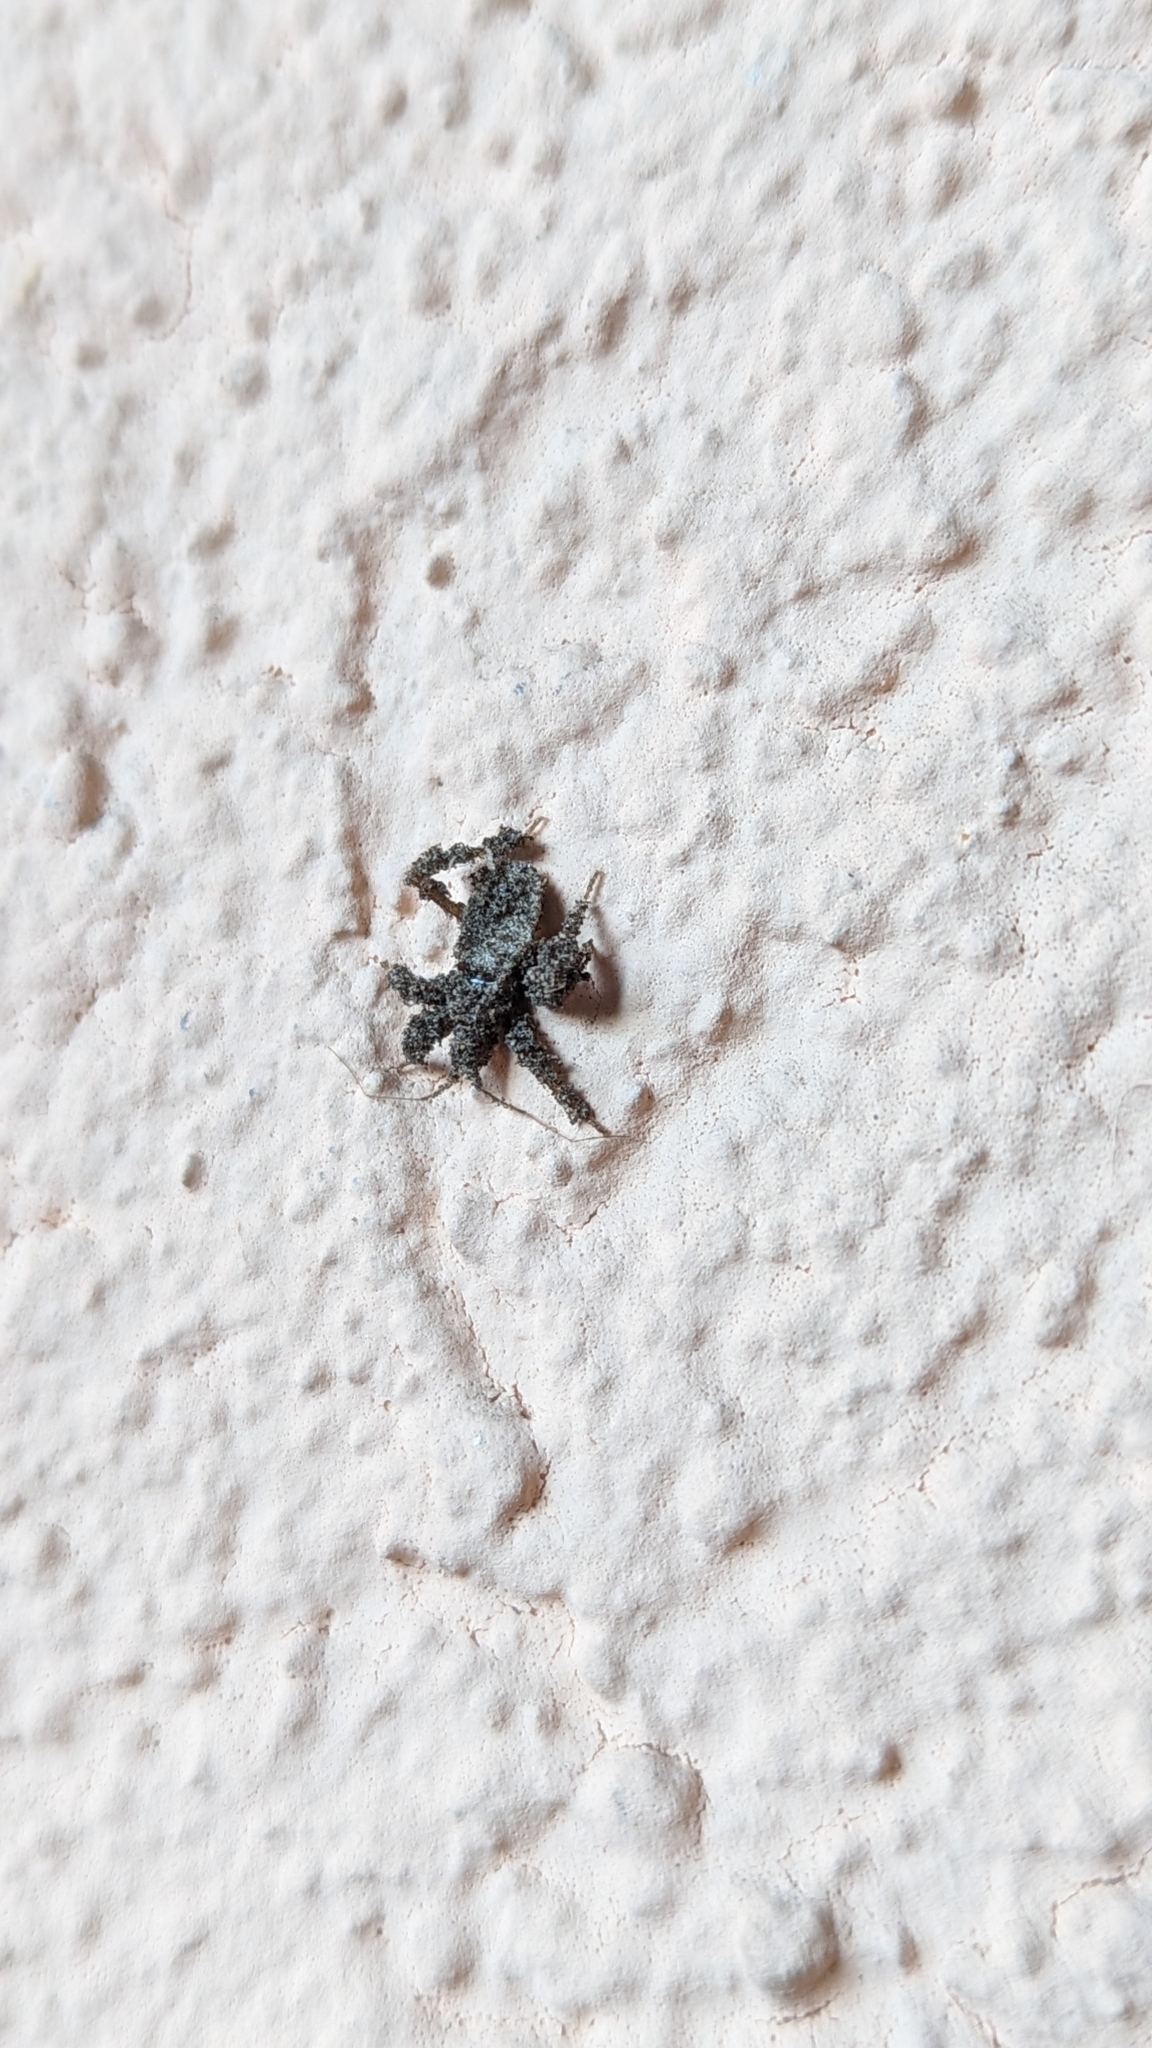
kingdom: Animalia
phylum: Arthropoda
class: Insecta
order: Hemiptera
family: Reduviidae
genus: Reduvius
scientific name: Reduvius personatus
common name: Masked hunter
